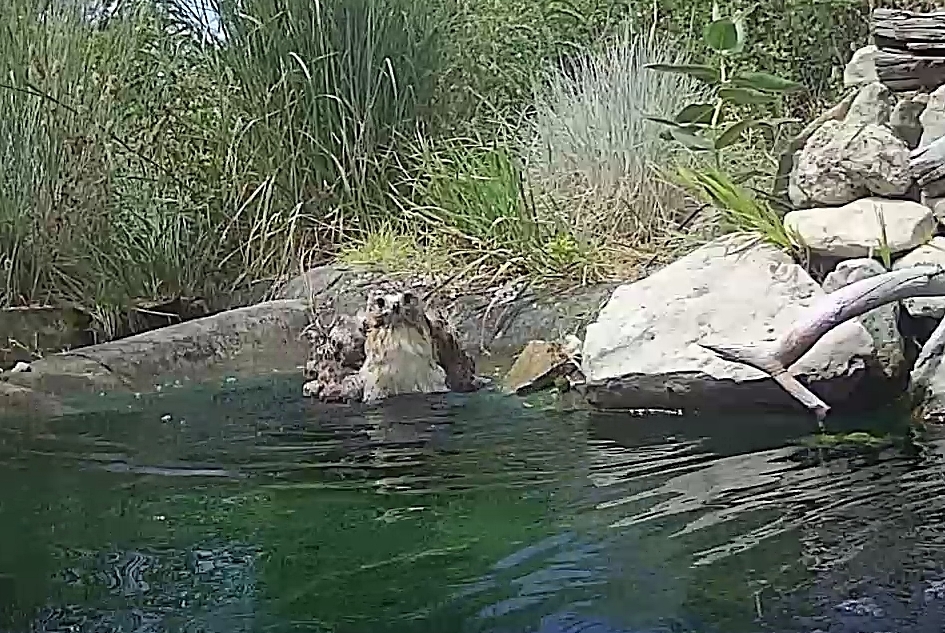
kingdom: Animalia
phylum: Chordata
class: Aves
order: Accipitriformes
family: Accipitridae
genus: Buteo
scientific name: Buteo jamaicensis
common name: Red-tailed hawk
